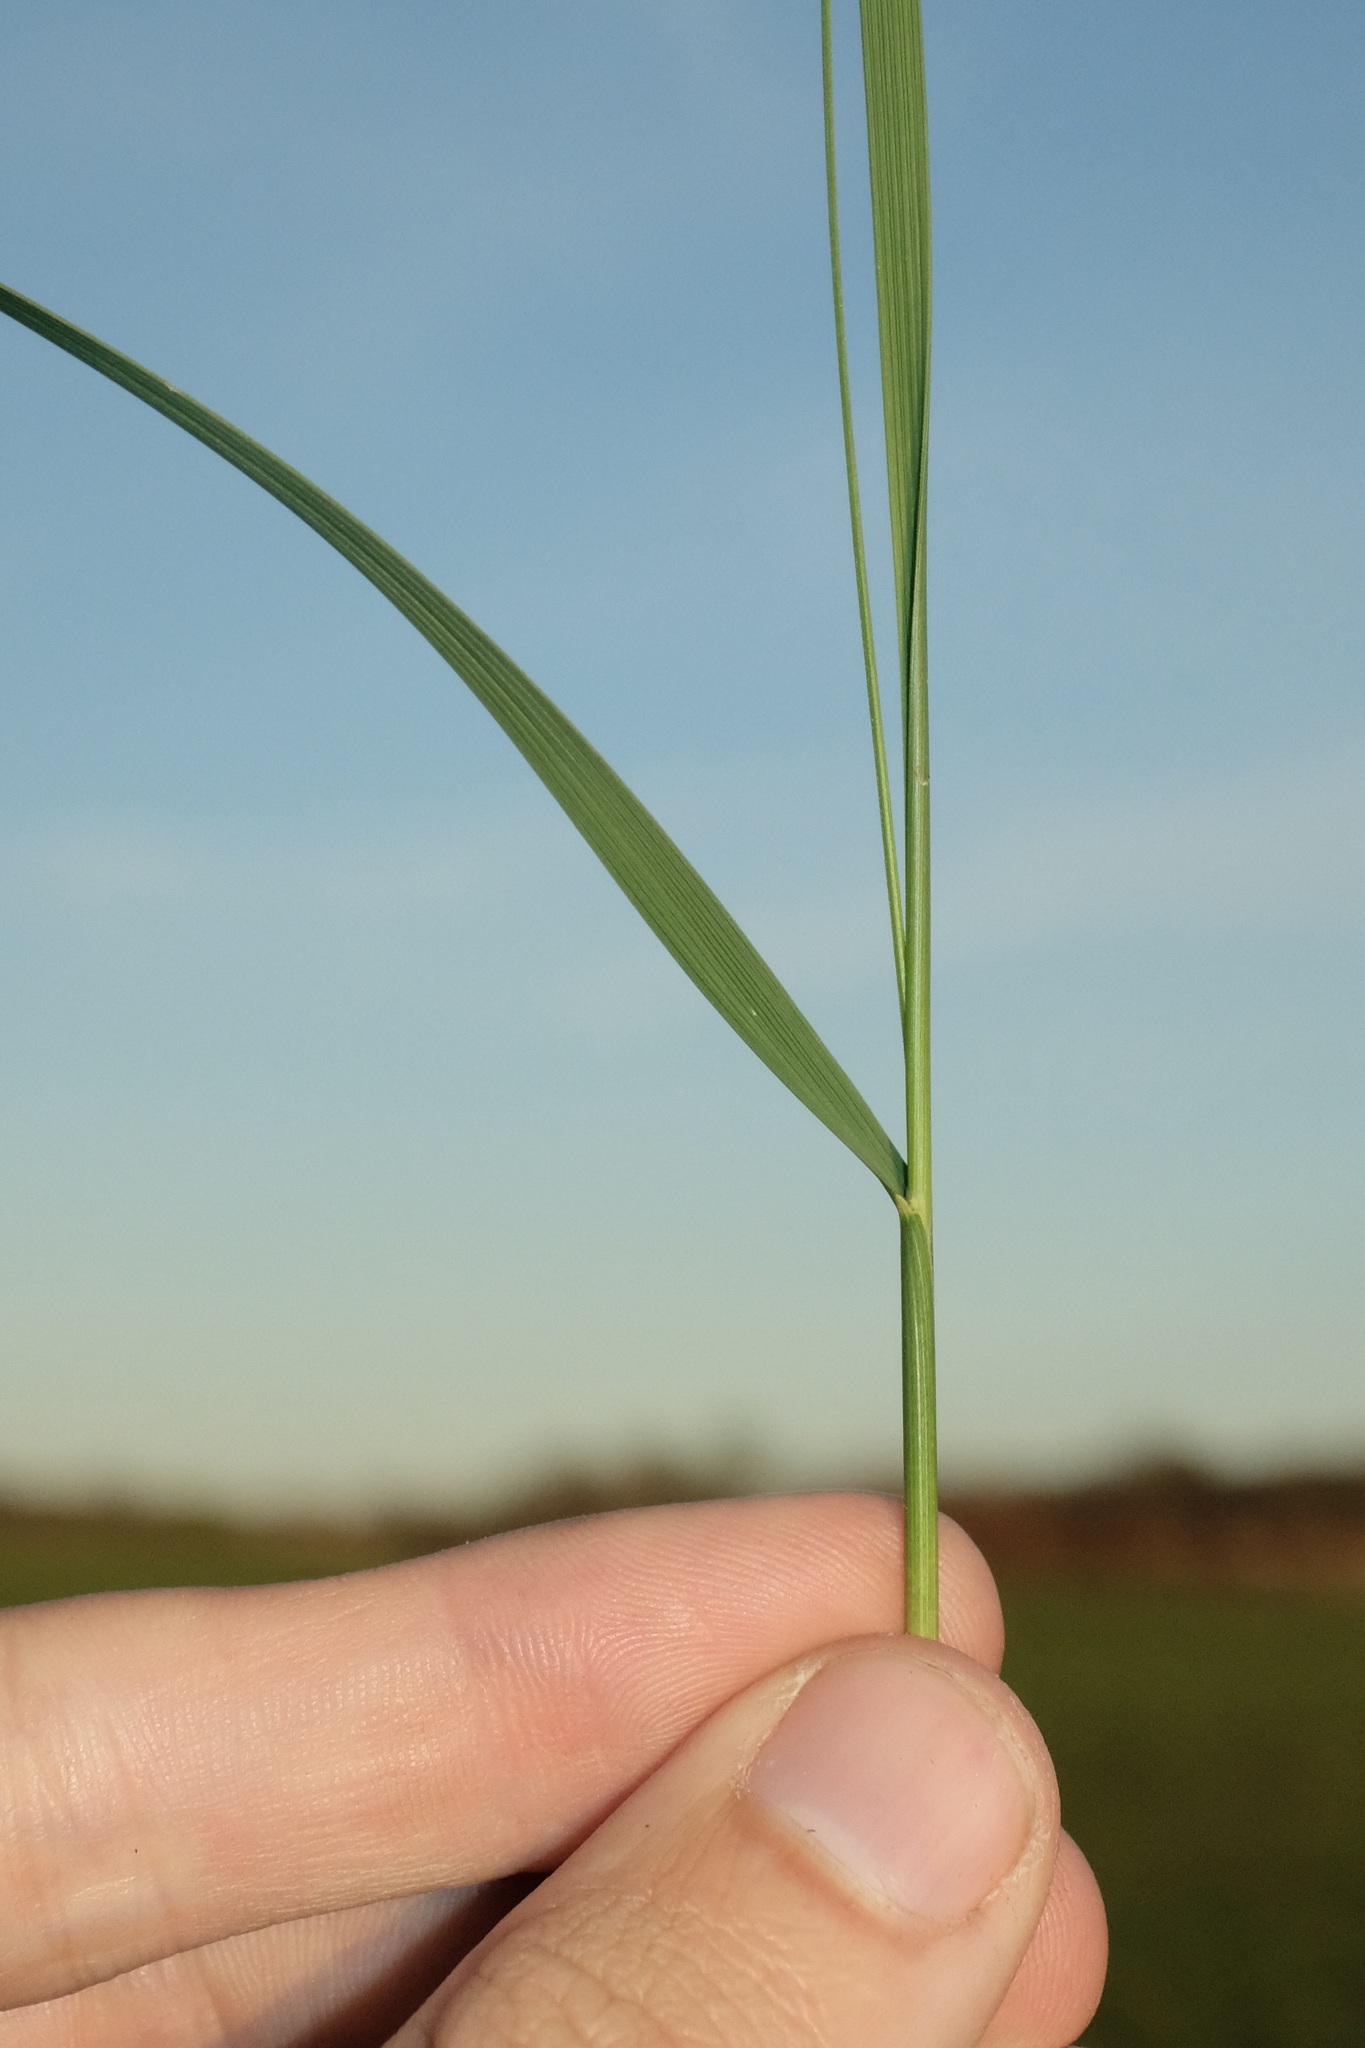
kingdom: Plantae
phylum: Tracheophyta
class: Liliopsida
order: Poales
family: Poaceae
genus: Hesperostipa
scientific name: Hesperostipa spartea
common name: Porcupine grass
